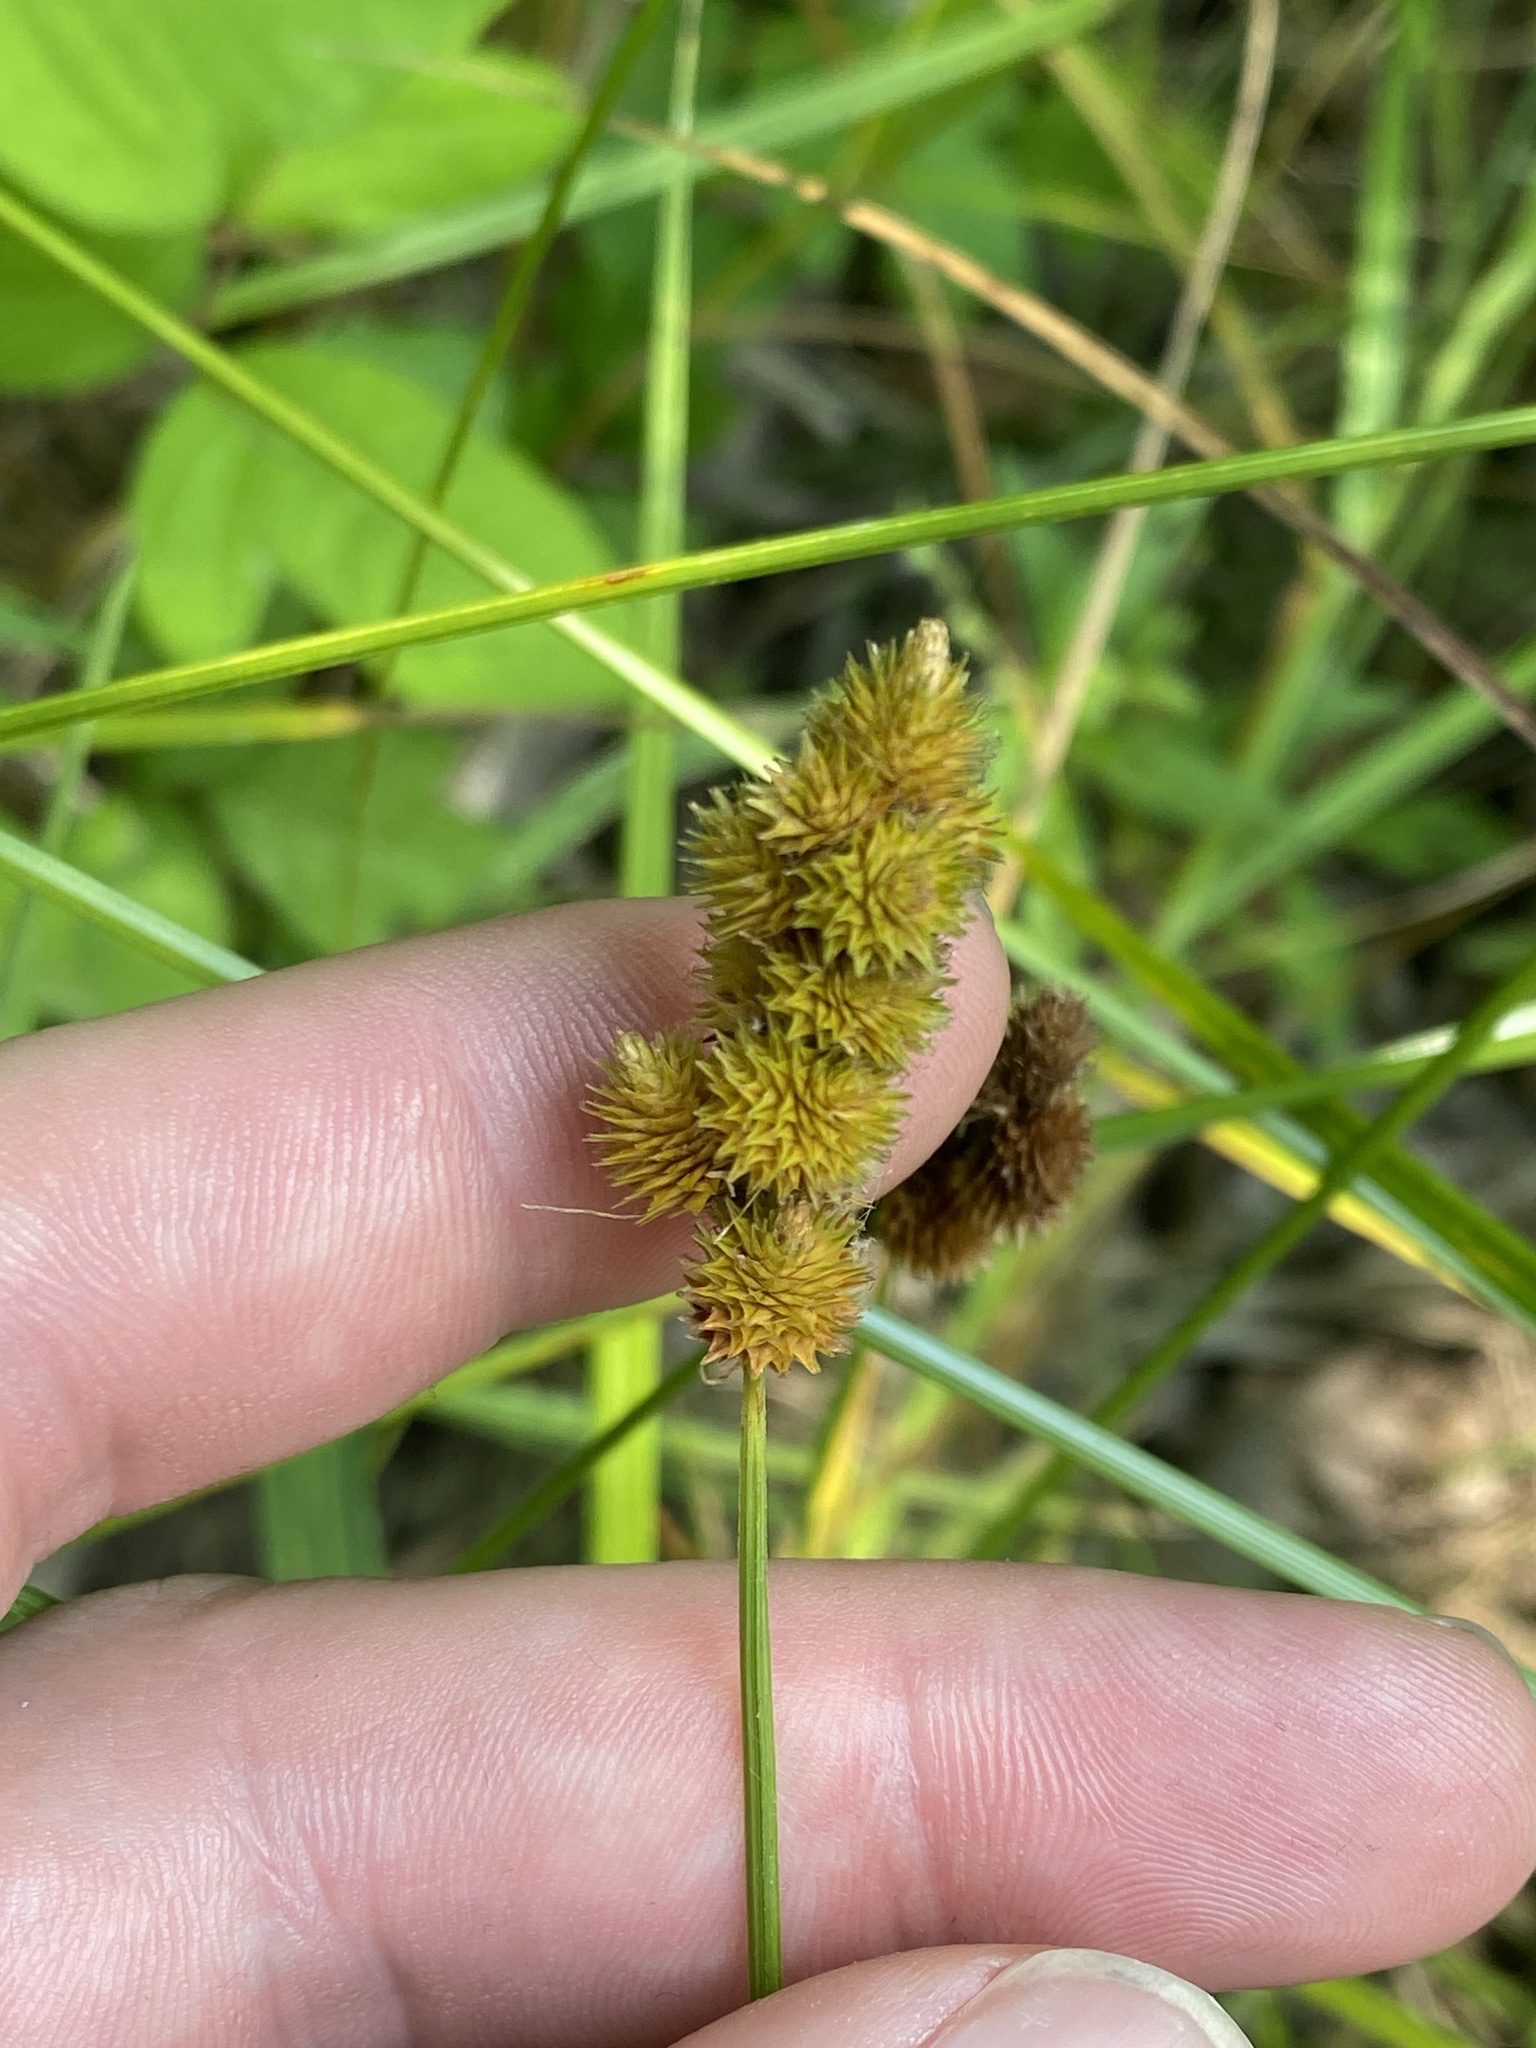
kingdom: Plantae
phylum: Tracheophyta
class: Liliopsida
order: Poales
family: Cyperaceae
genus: Carex
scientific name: Carex cristatella
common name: Crested oval sedge
